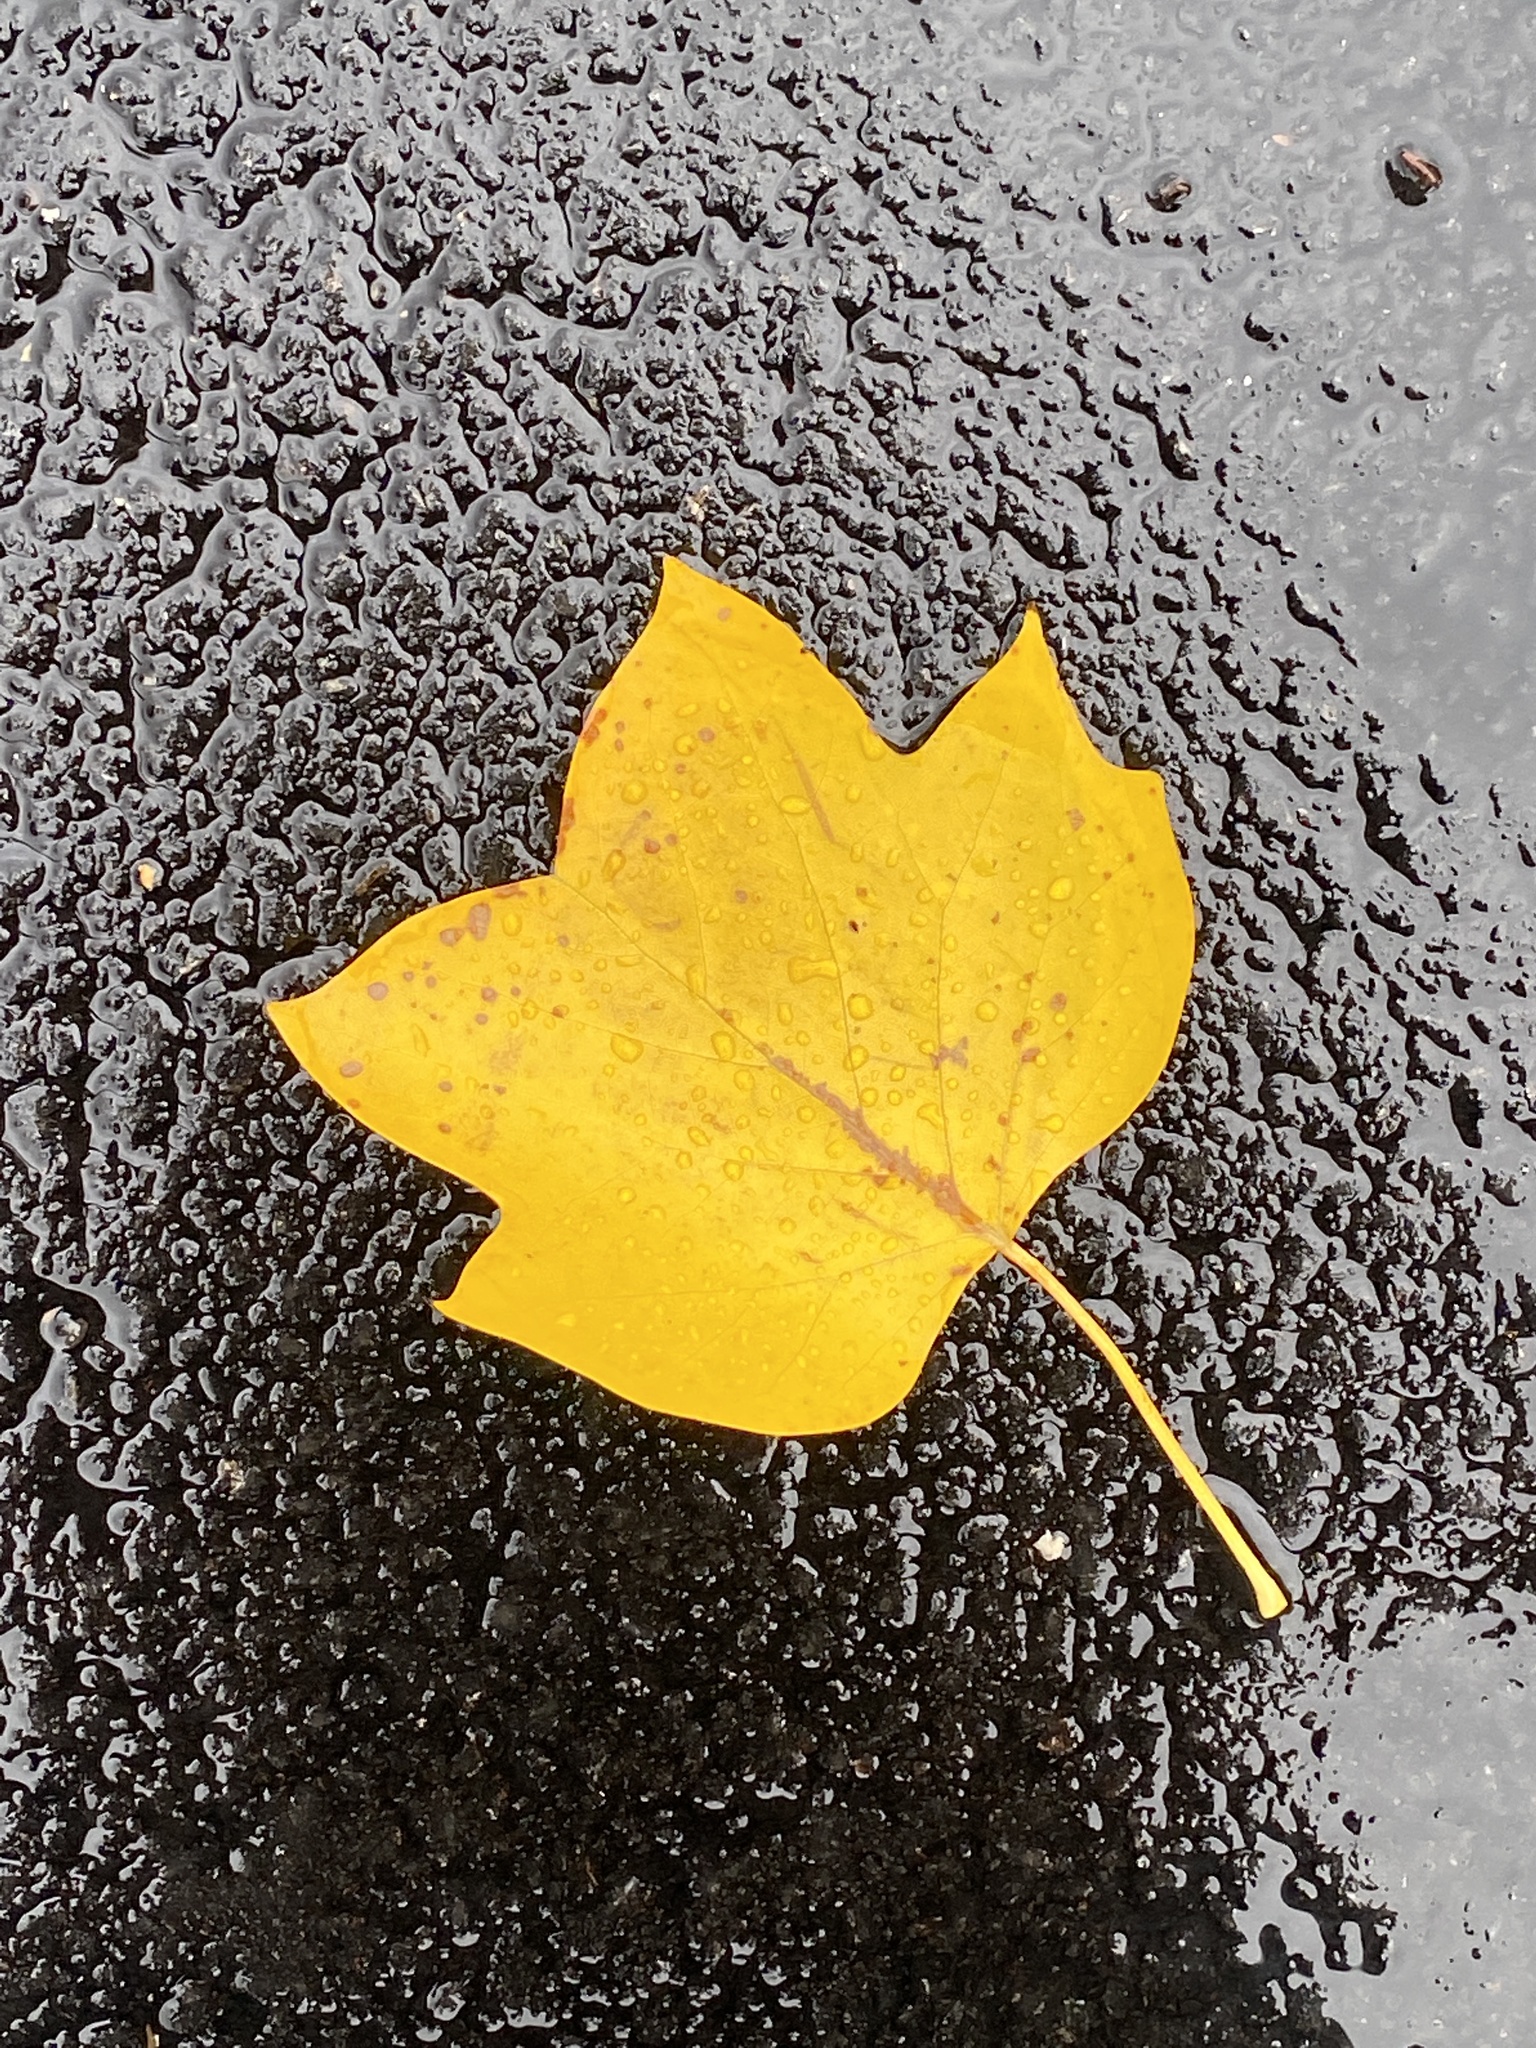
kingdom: Plantae
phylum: Tracheophyta
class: Magnoliopsida
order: Magnoliales
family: Magnoliaceae
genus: Liriodendron
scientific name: Liriodendron tulipifera
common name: Tulip tree
